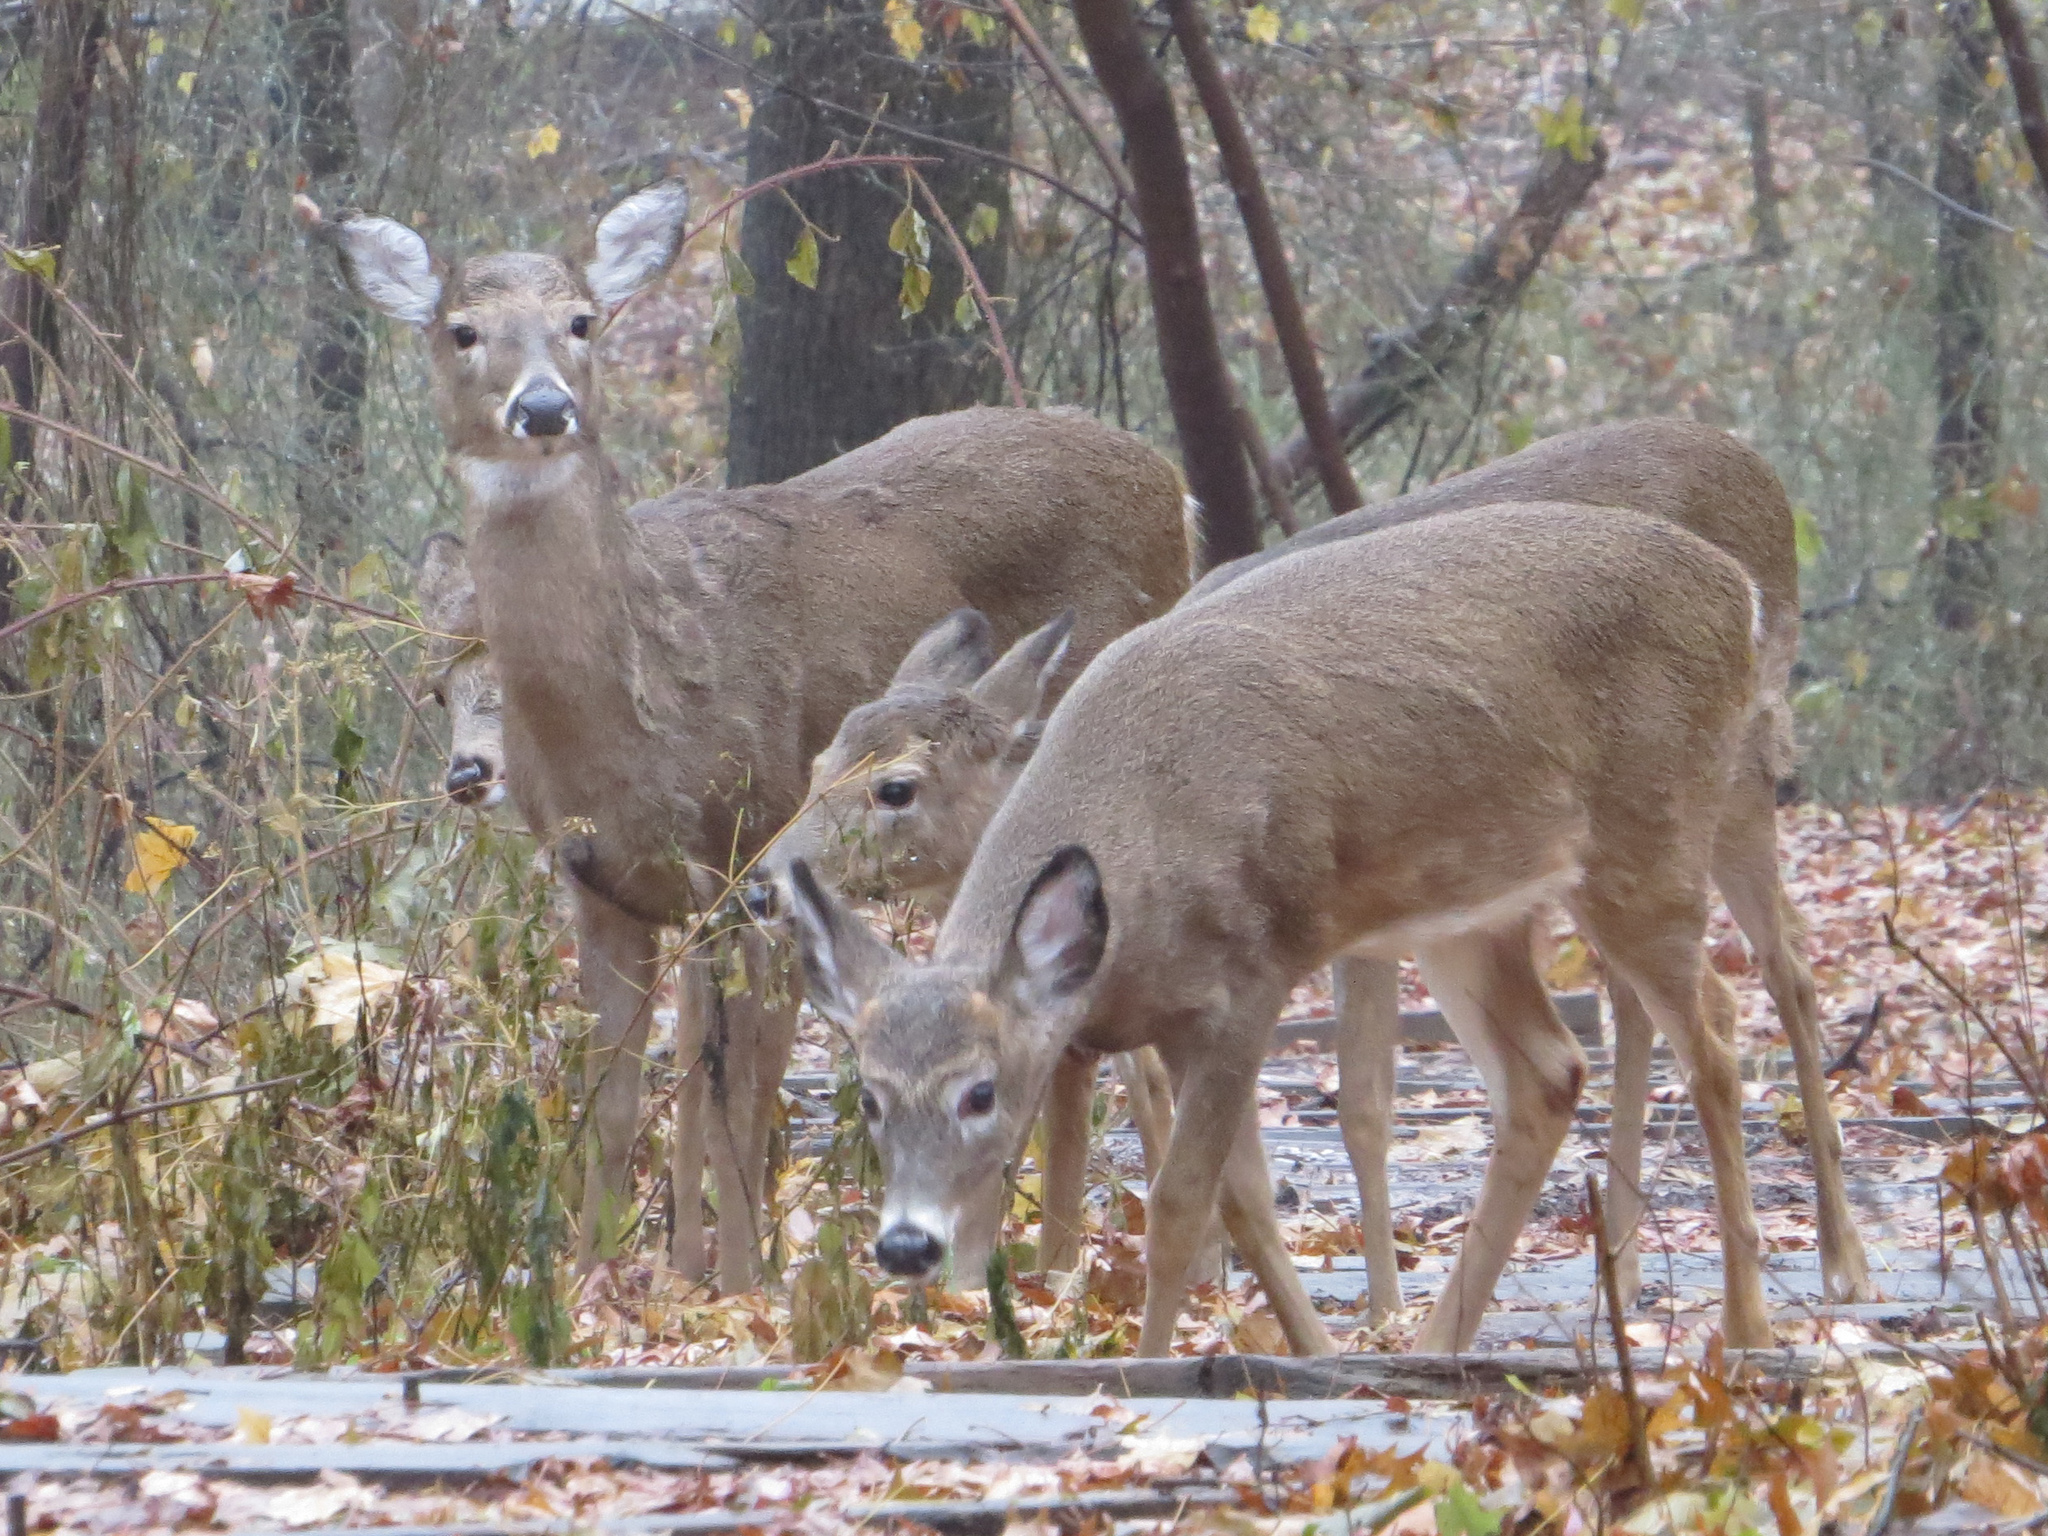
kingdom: Animalia
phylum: Chordata
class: Mammalia
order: Artiodactyla
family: Cervidae
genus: Odocoileus
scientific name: Odocoileus virginianus
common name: White-tailed deer
